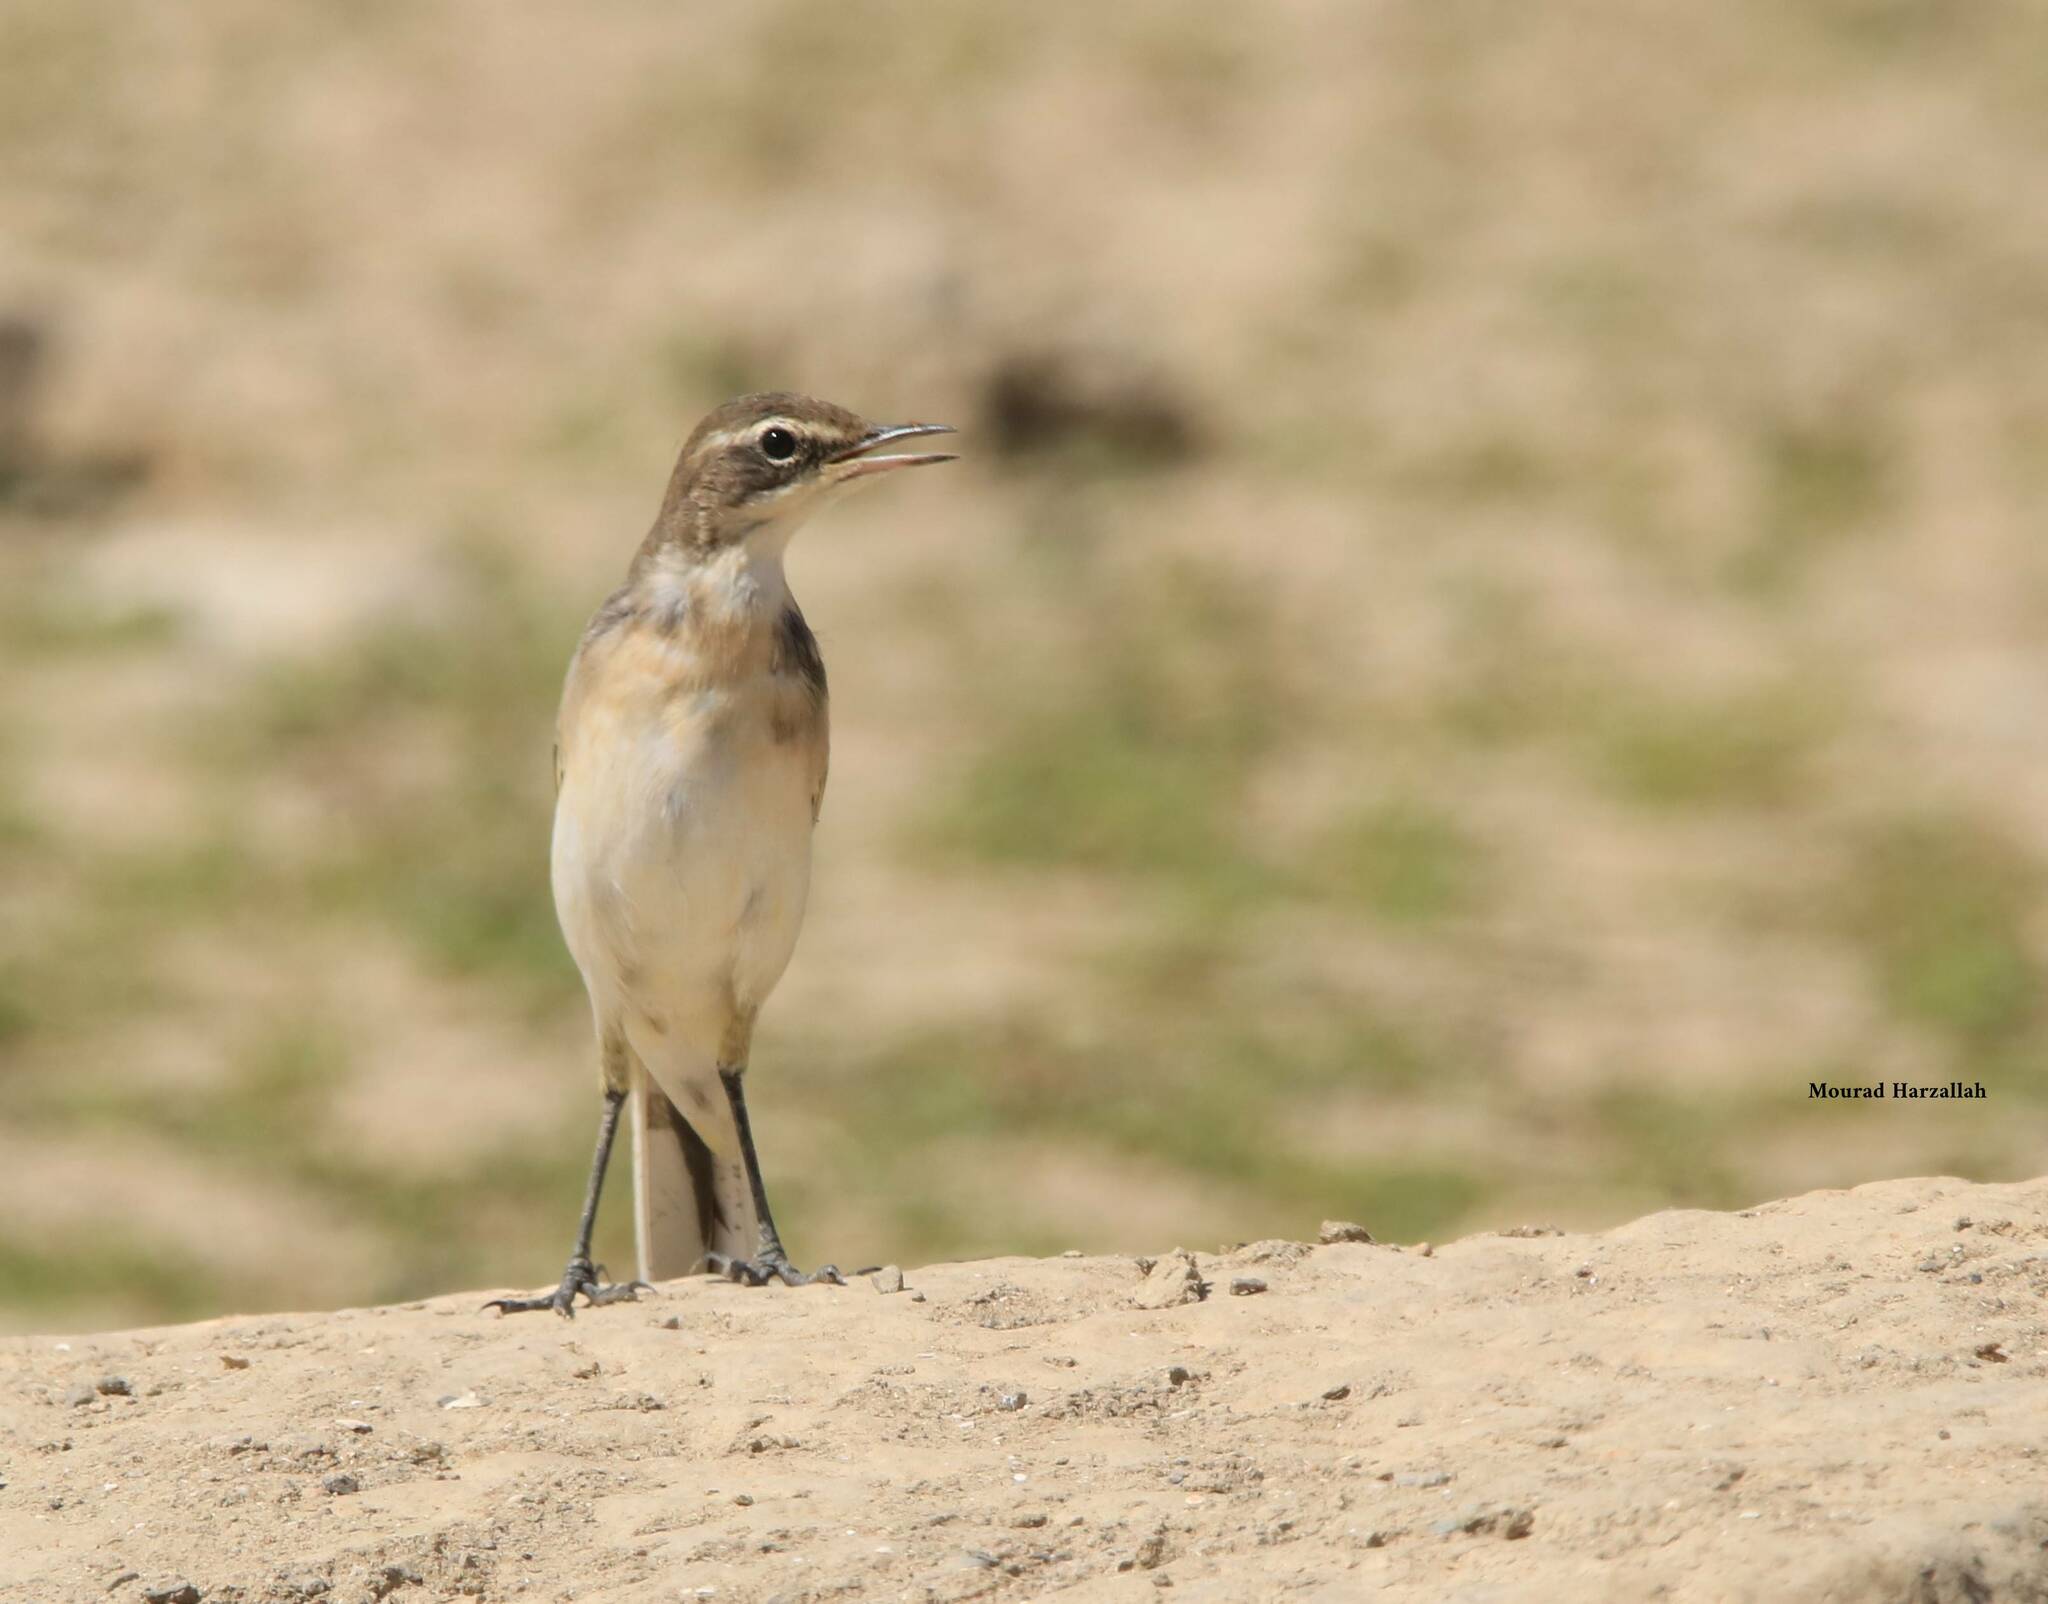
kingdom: Animalia
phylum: Chordata
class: Aves
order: Passeriformes
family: Motacillidae
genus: Motacilla
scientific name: Motacilla flava
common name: Western yellow wagtail
